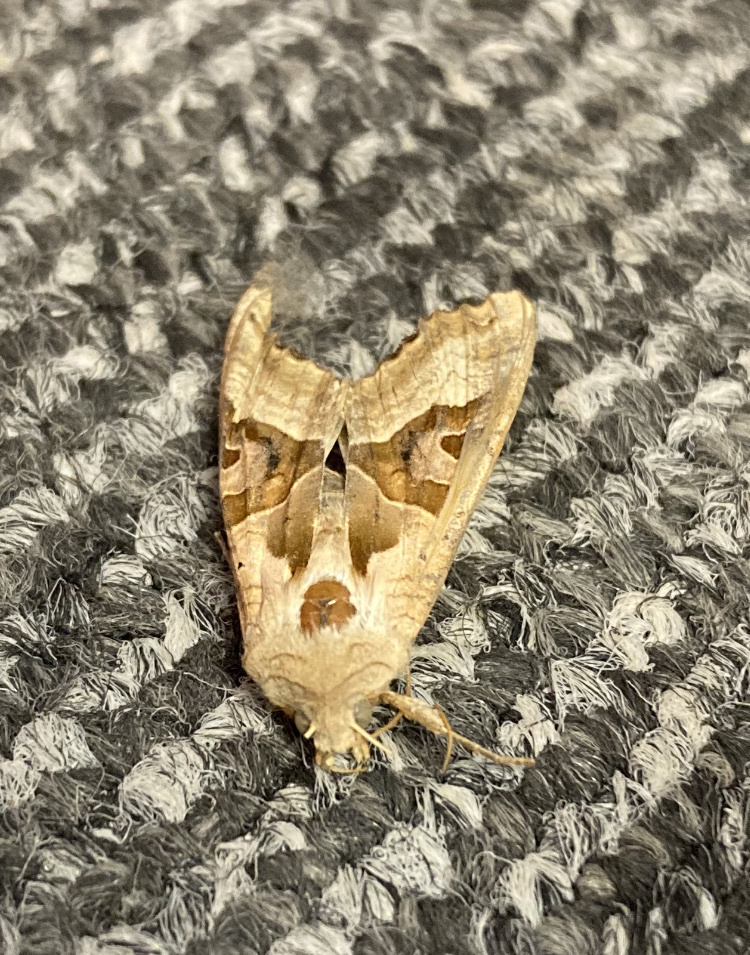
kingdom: Animalia
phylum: Arthropoda
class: Insecta
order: Lepidoptera
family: Noctuidae
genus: Phlogophora
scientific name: Phlogophora meticulosa
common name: Angle shades
